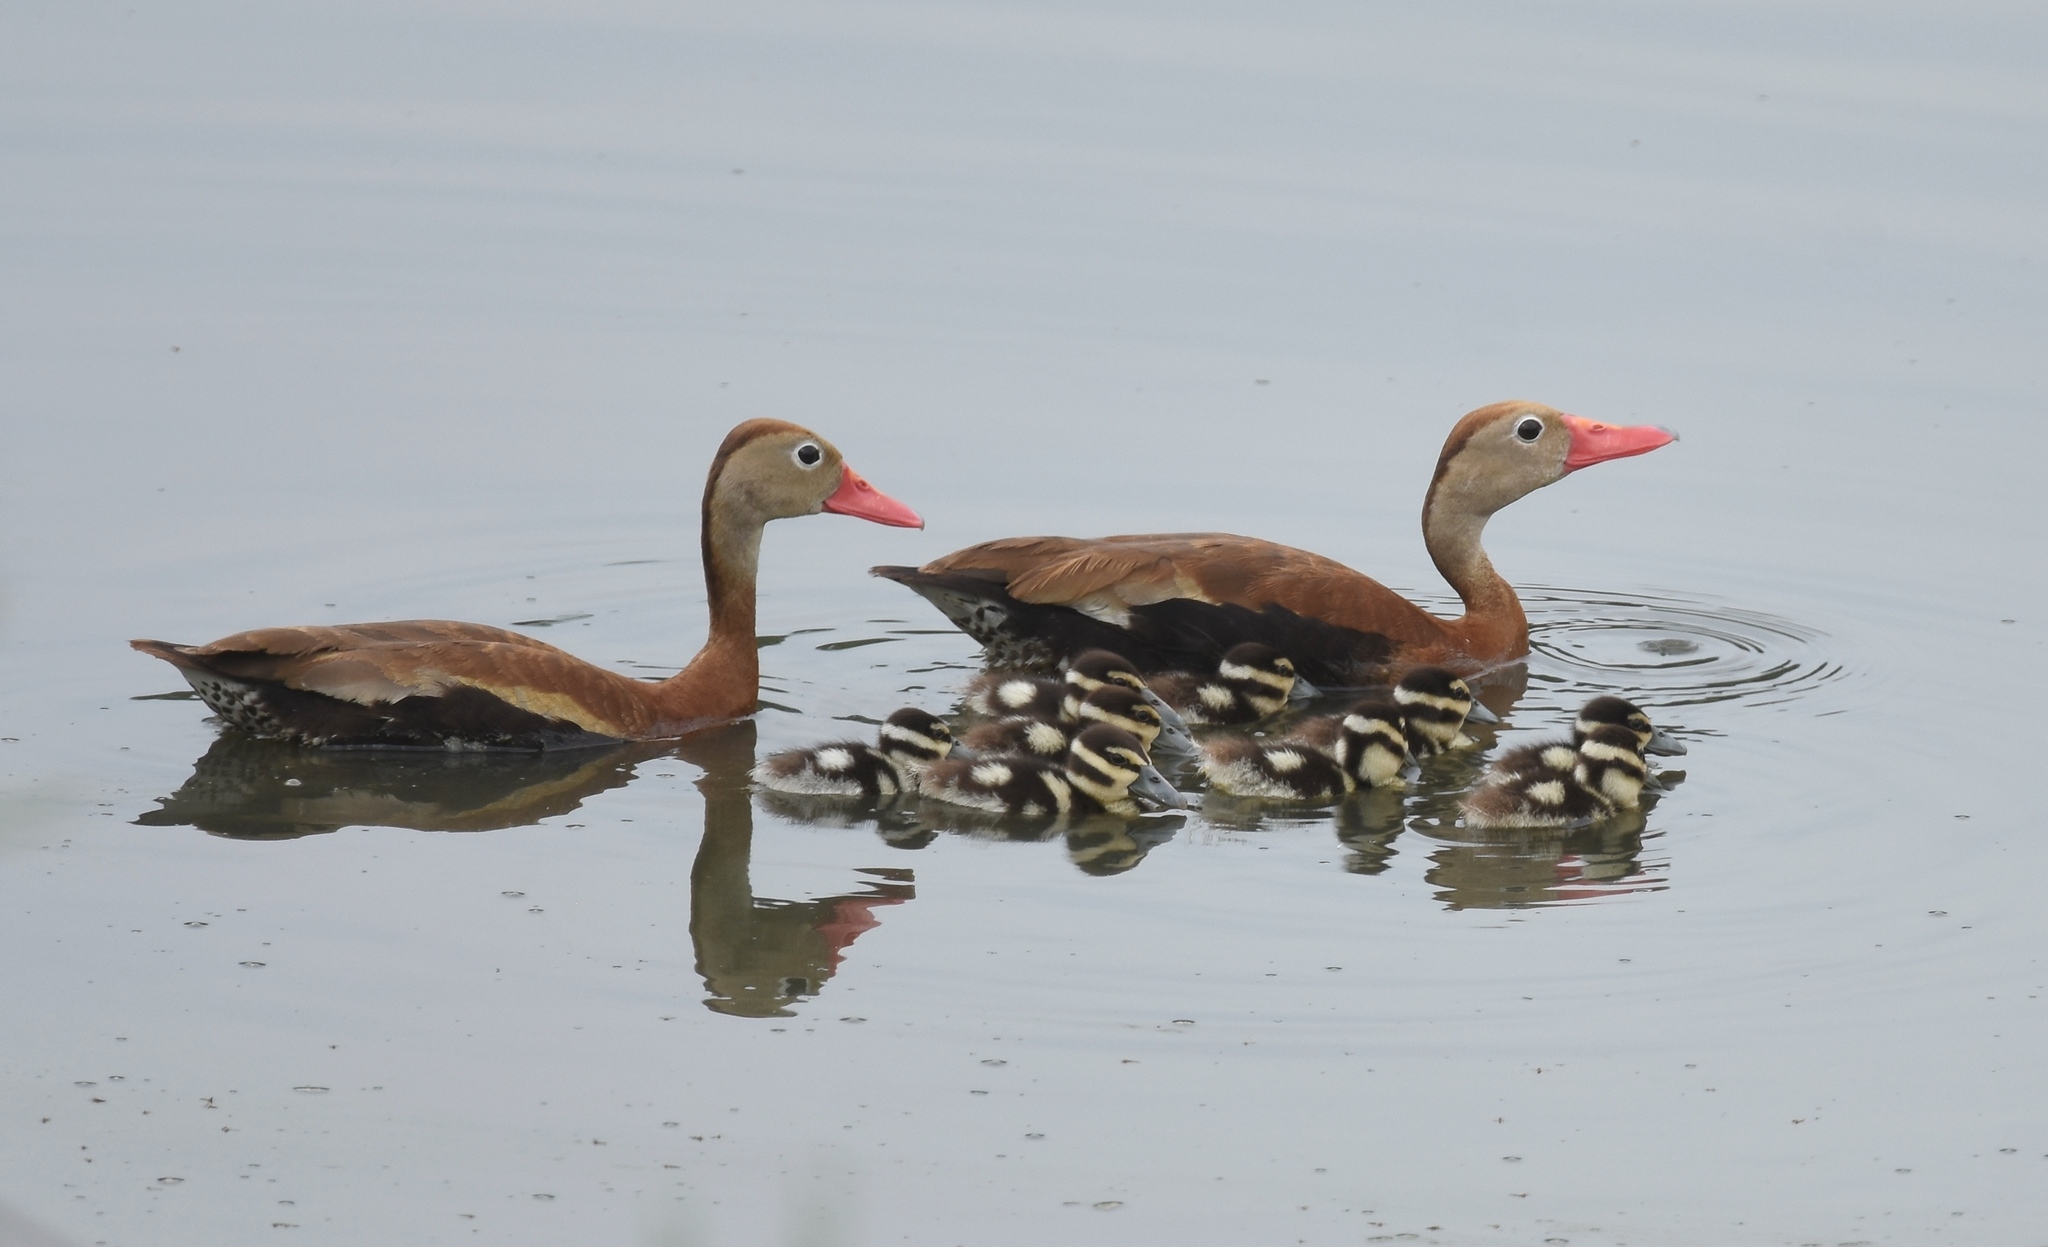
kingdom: Animalia
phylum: Chordata
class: Aves
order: Anseriformes
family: Anatidae
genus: Dendrocygna
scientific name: Dendrocygna autumnalis
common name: Black-bellied whistling duck
